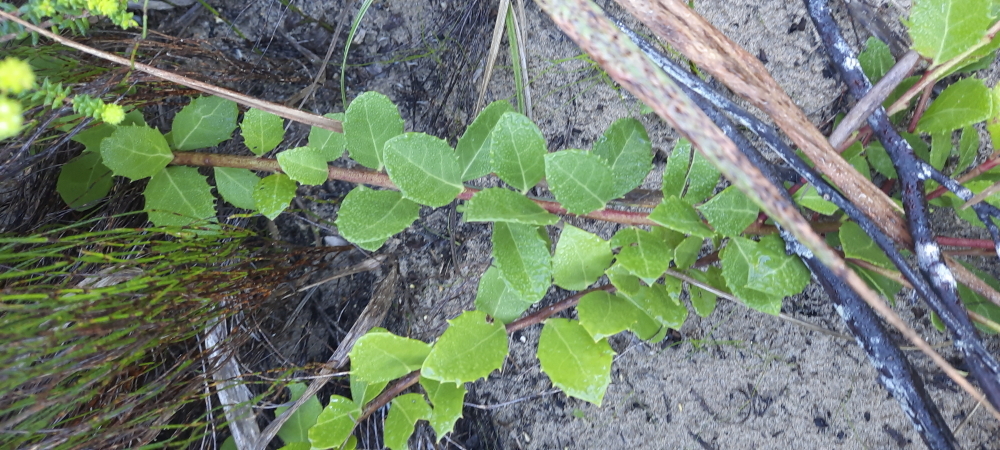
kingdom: Plantae
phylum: Tracheophyta
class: Magnoliopsida
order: Celastrales
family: Celastraceae
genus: Gymnosporia
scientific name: Gymnosporia procumbens
